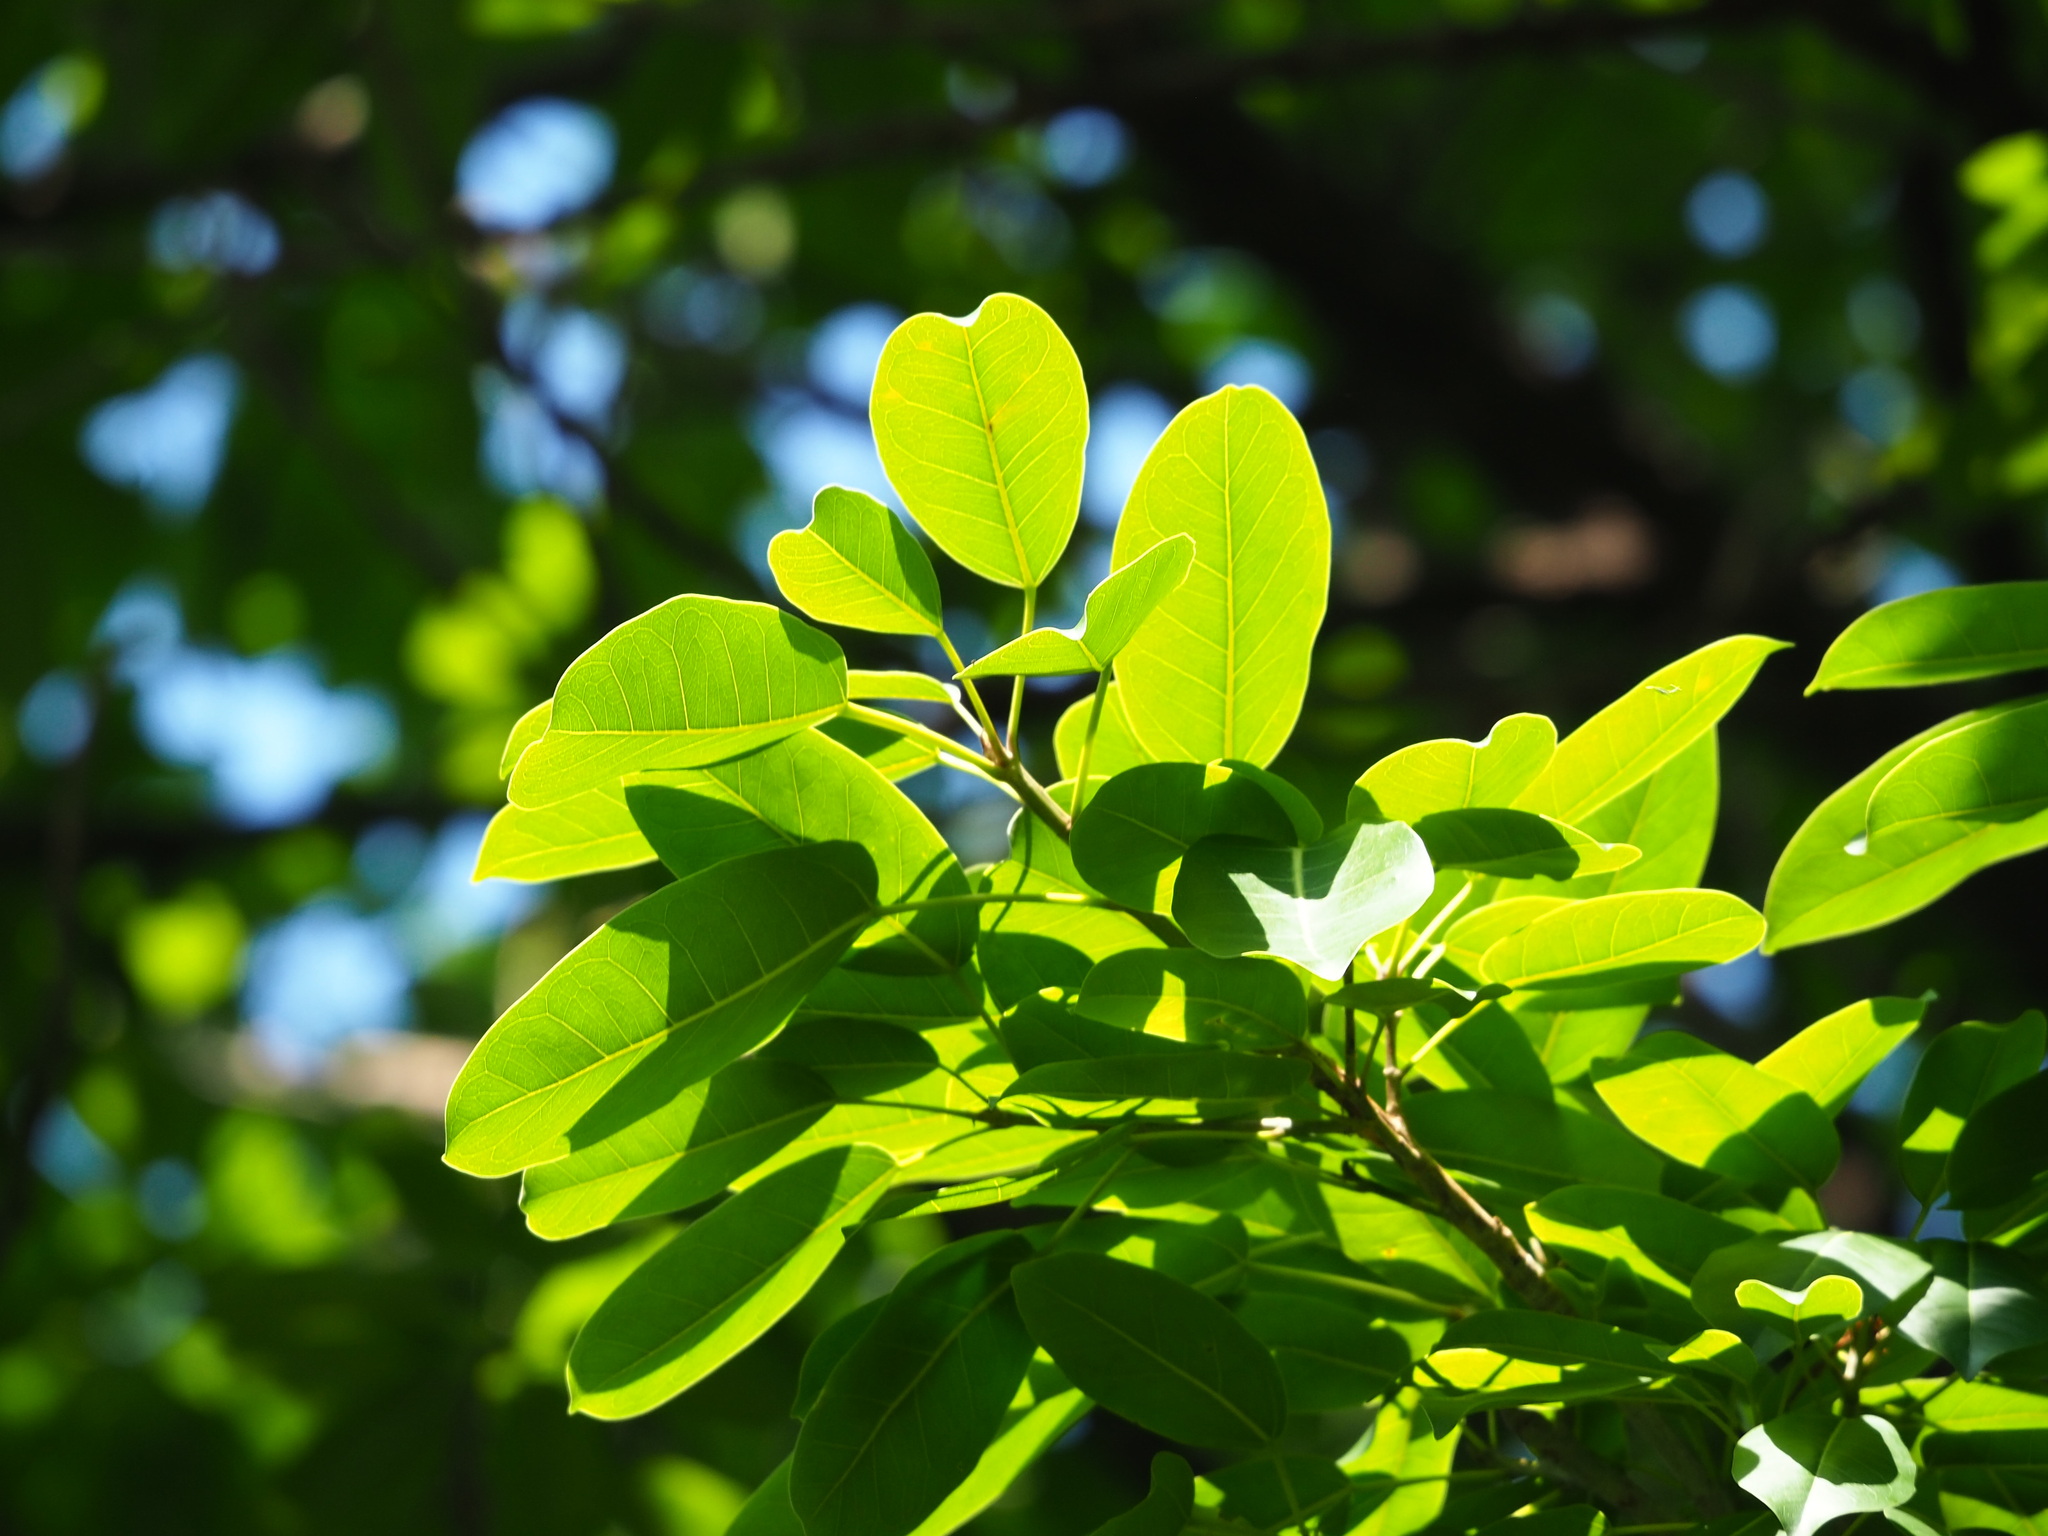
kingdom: Plantae
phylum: Tracheophyta
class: Magnoliopsida
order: Rosales
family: Moraceae
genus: Ficus
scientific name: Ficus subpisocarpa
